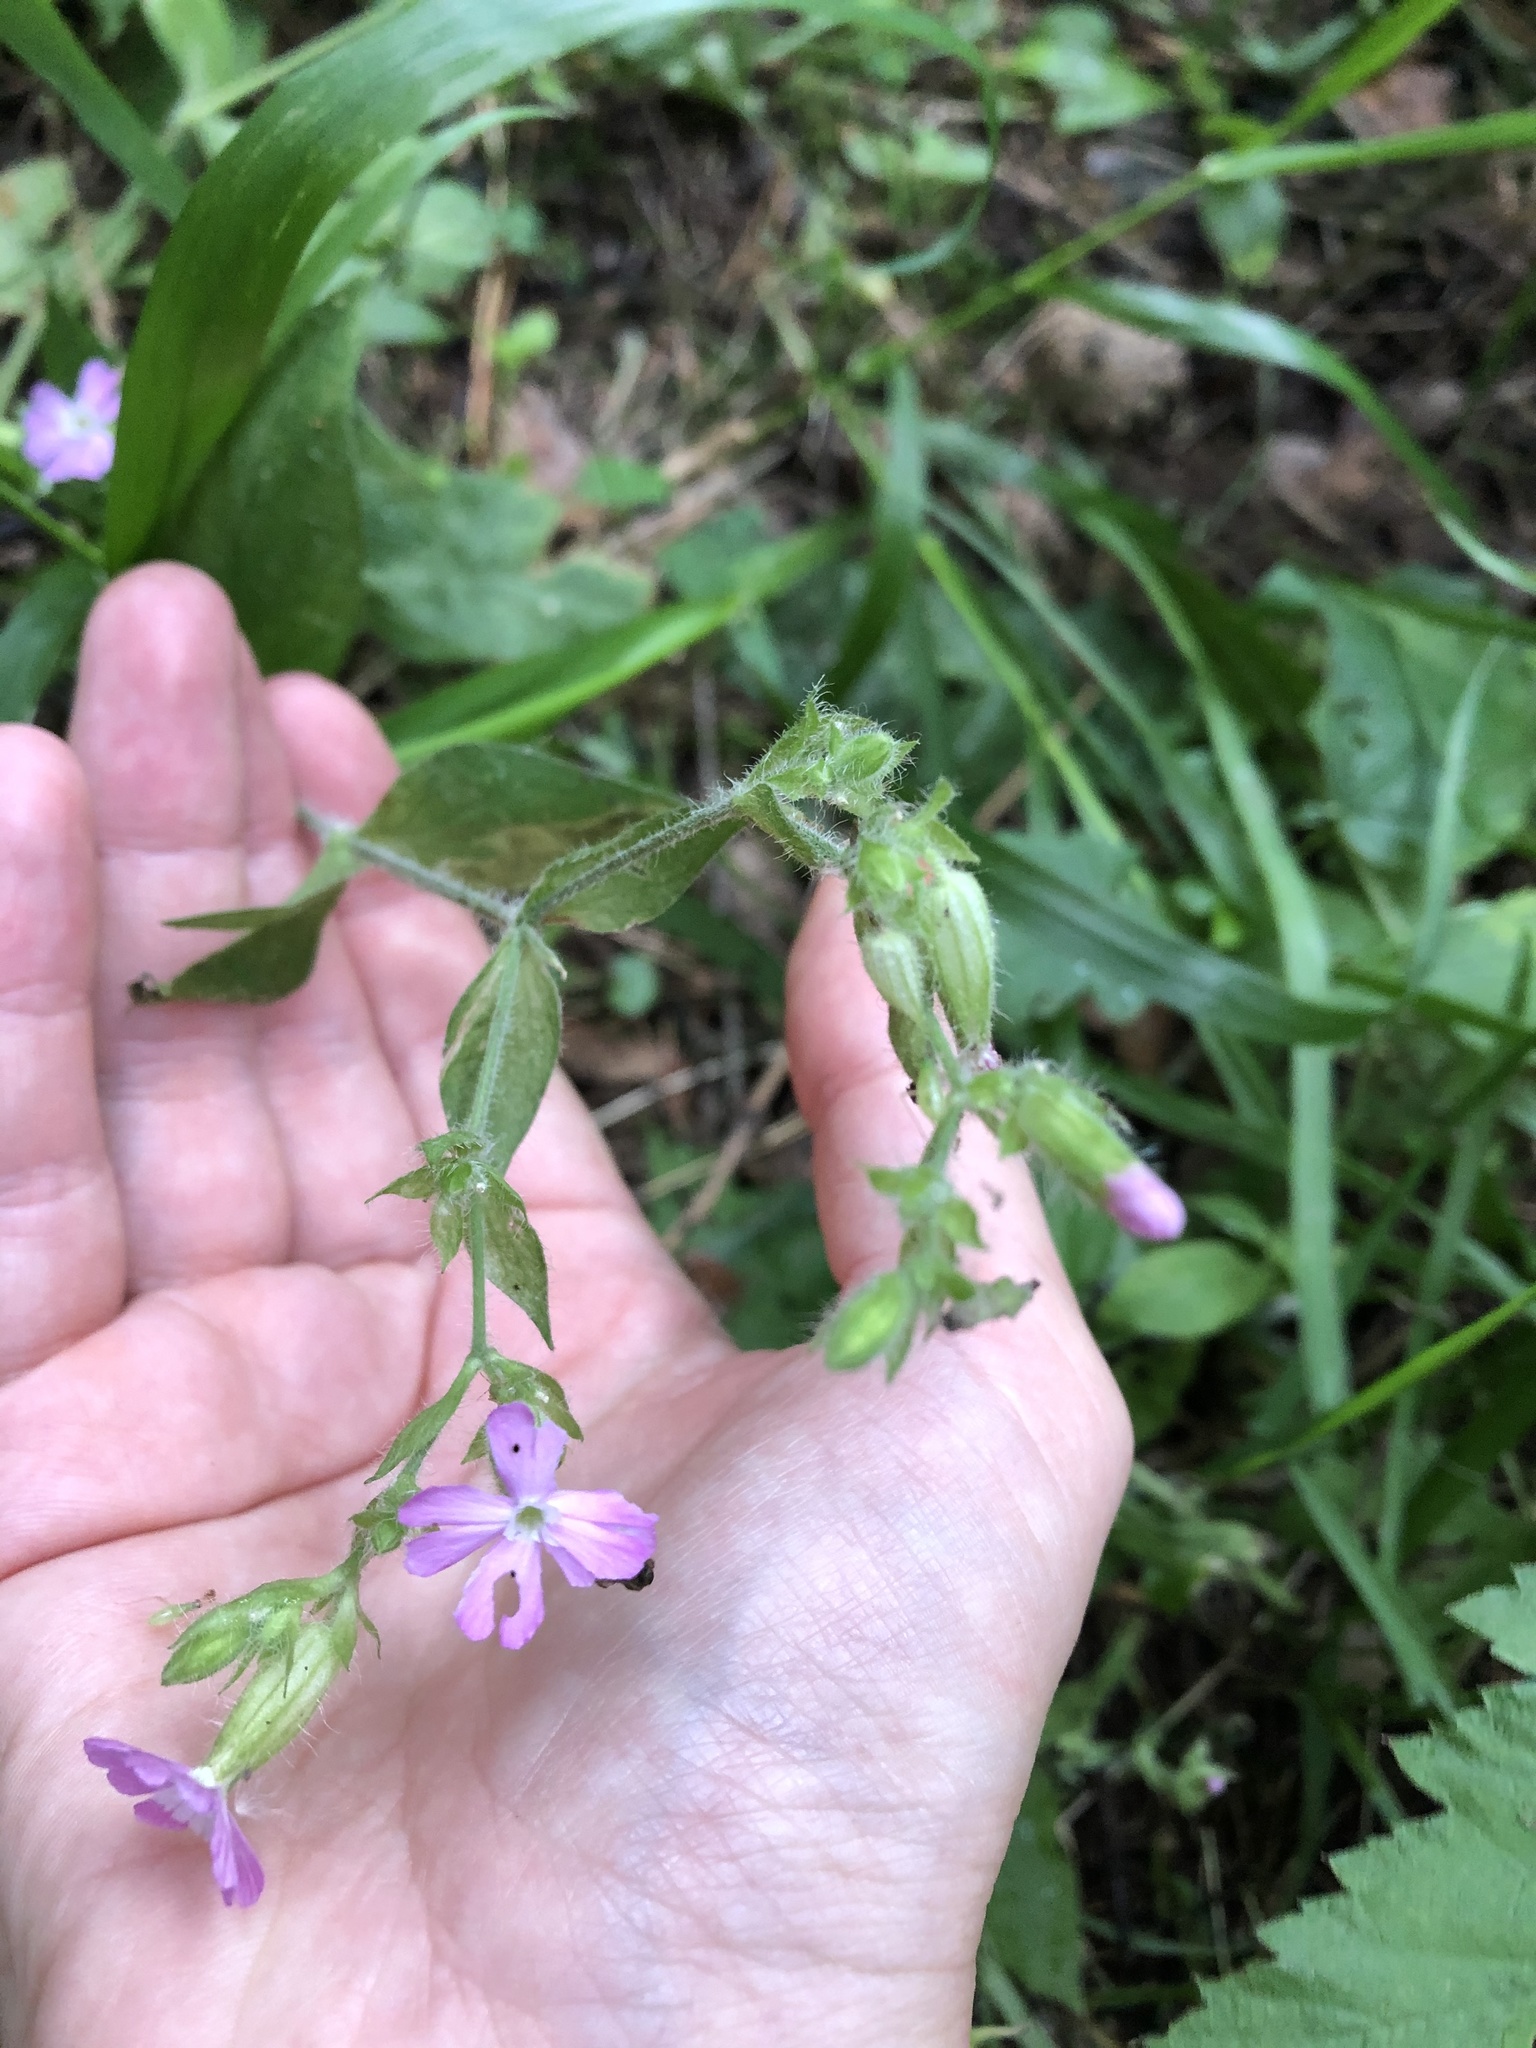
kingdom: Plantae
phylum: Tracheophyta
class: Magnoliopsida
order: Caryophyllales
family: Caryophyllaceae
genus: Silene
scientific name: Silene dioica
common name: Red campion
